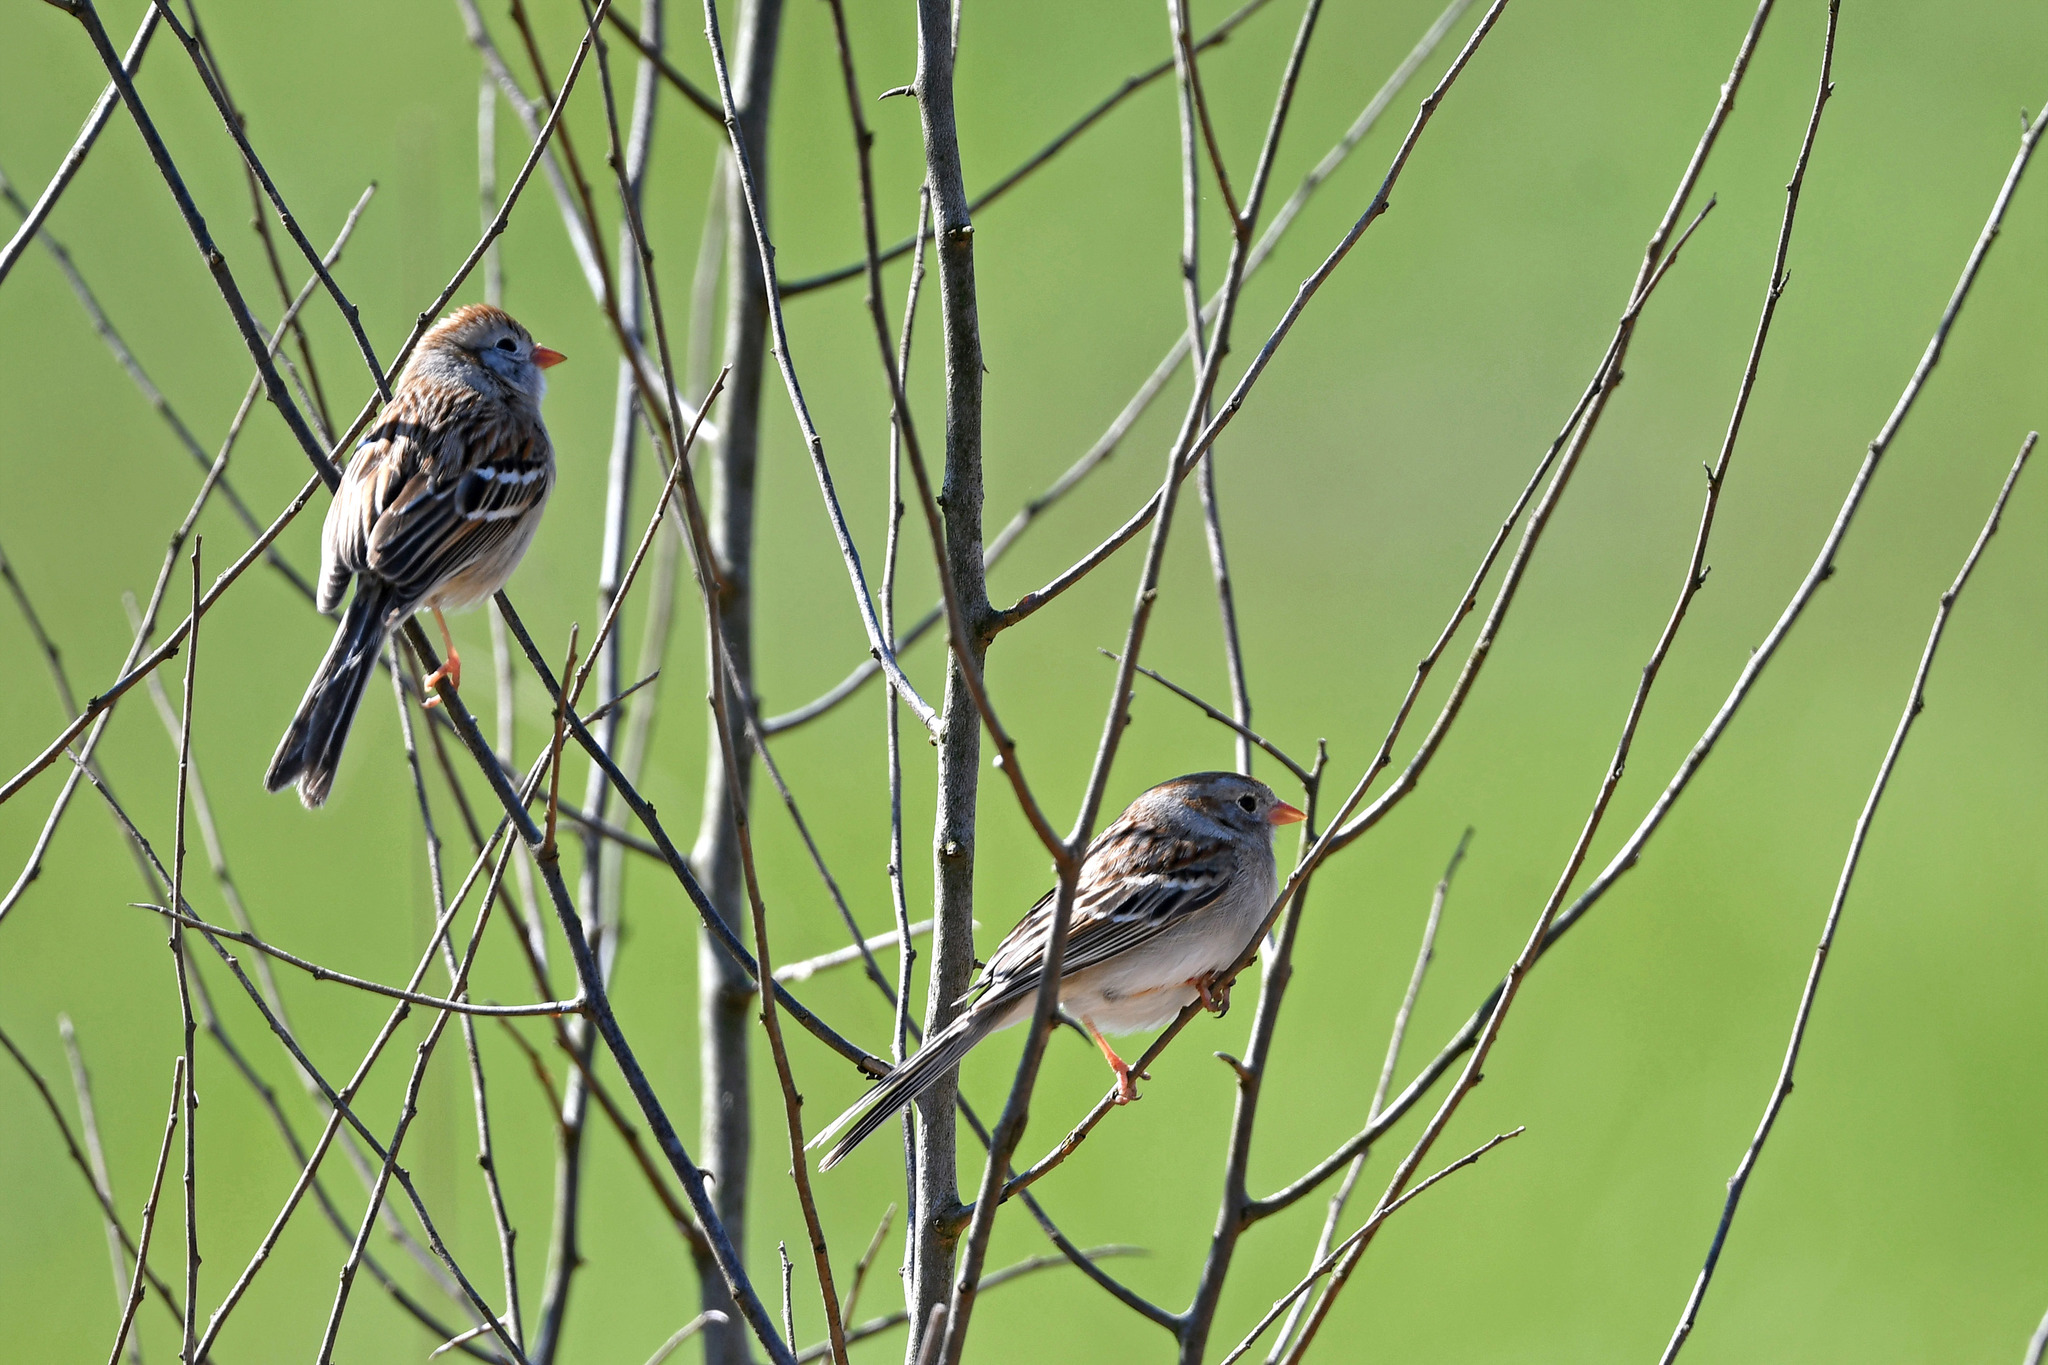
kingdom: Animalia
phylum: Chordata
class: Aves
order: Passeriformes
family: Passerellidae
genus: Spizella
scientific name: Spizella pusilla
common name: Field sparrow
